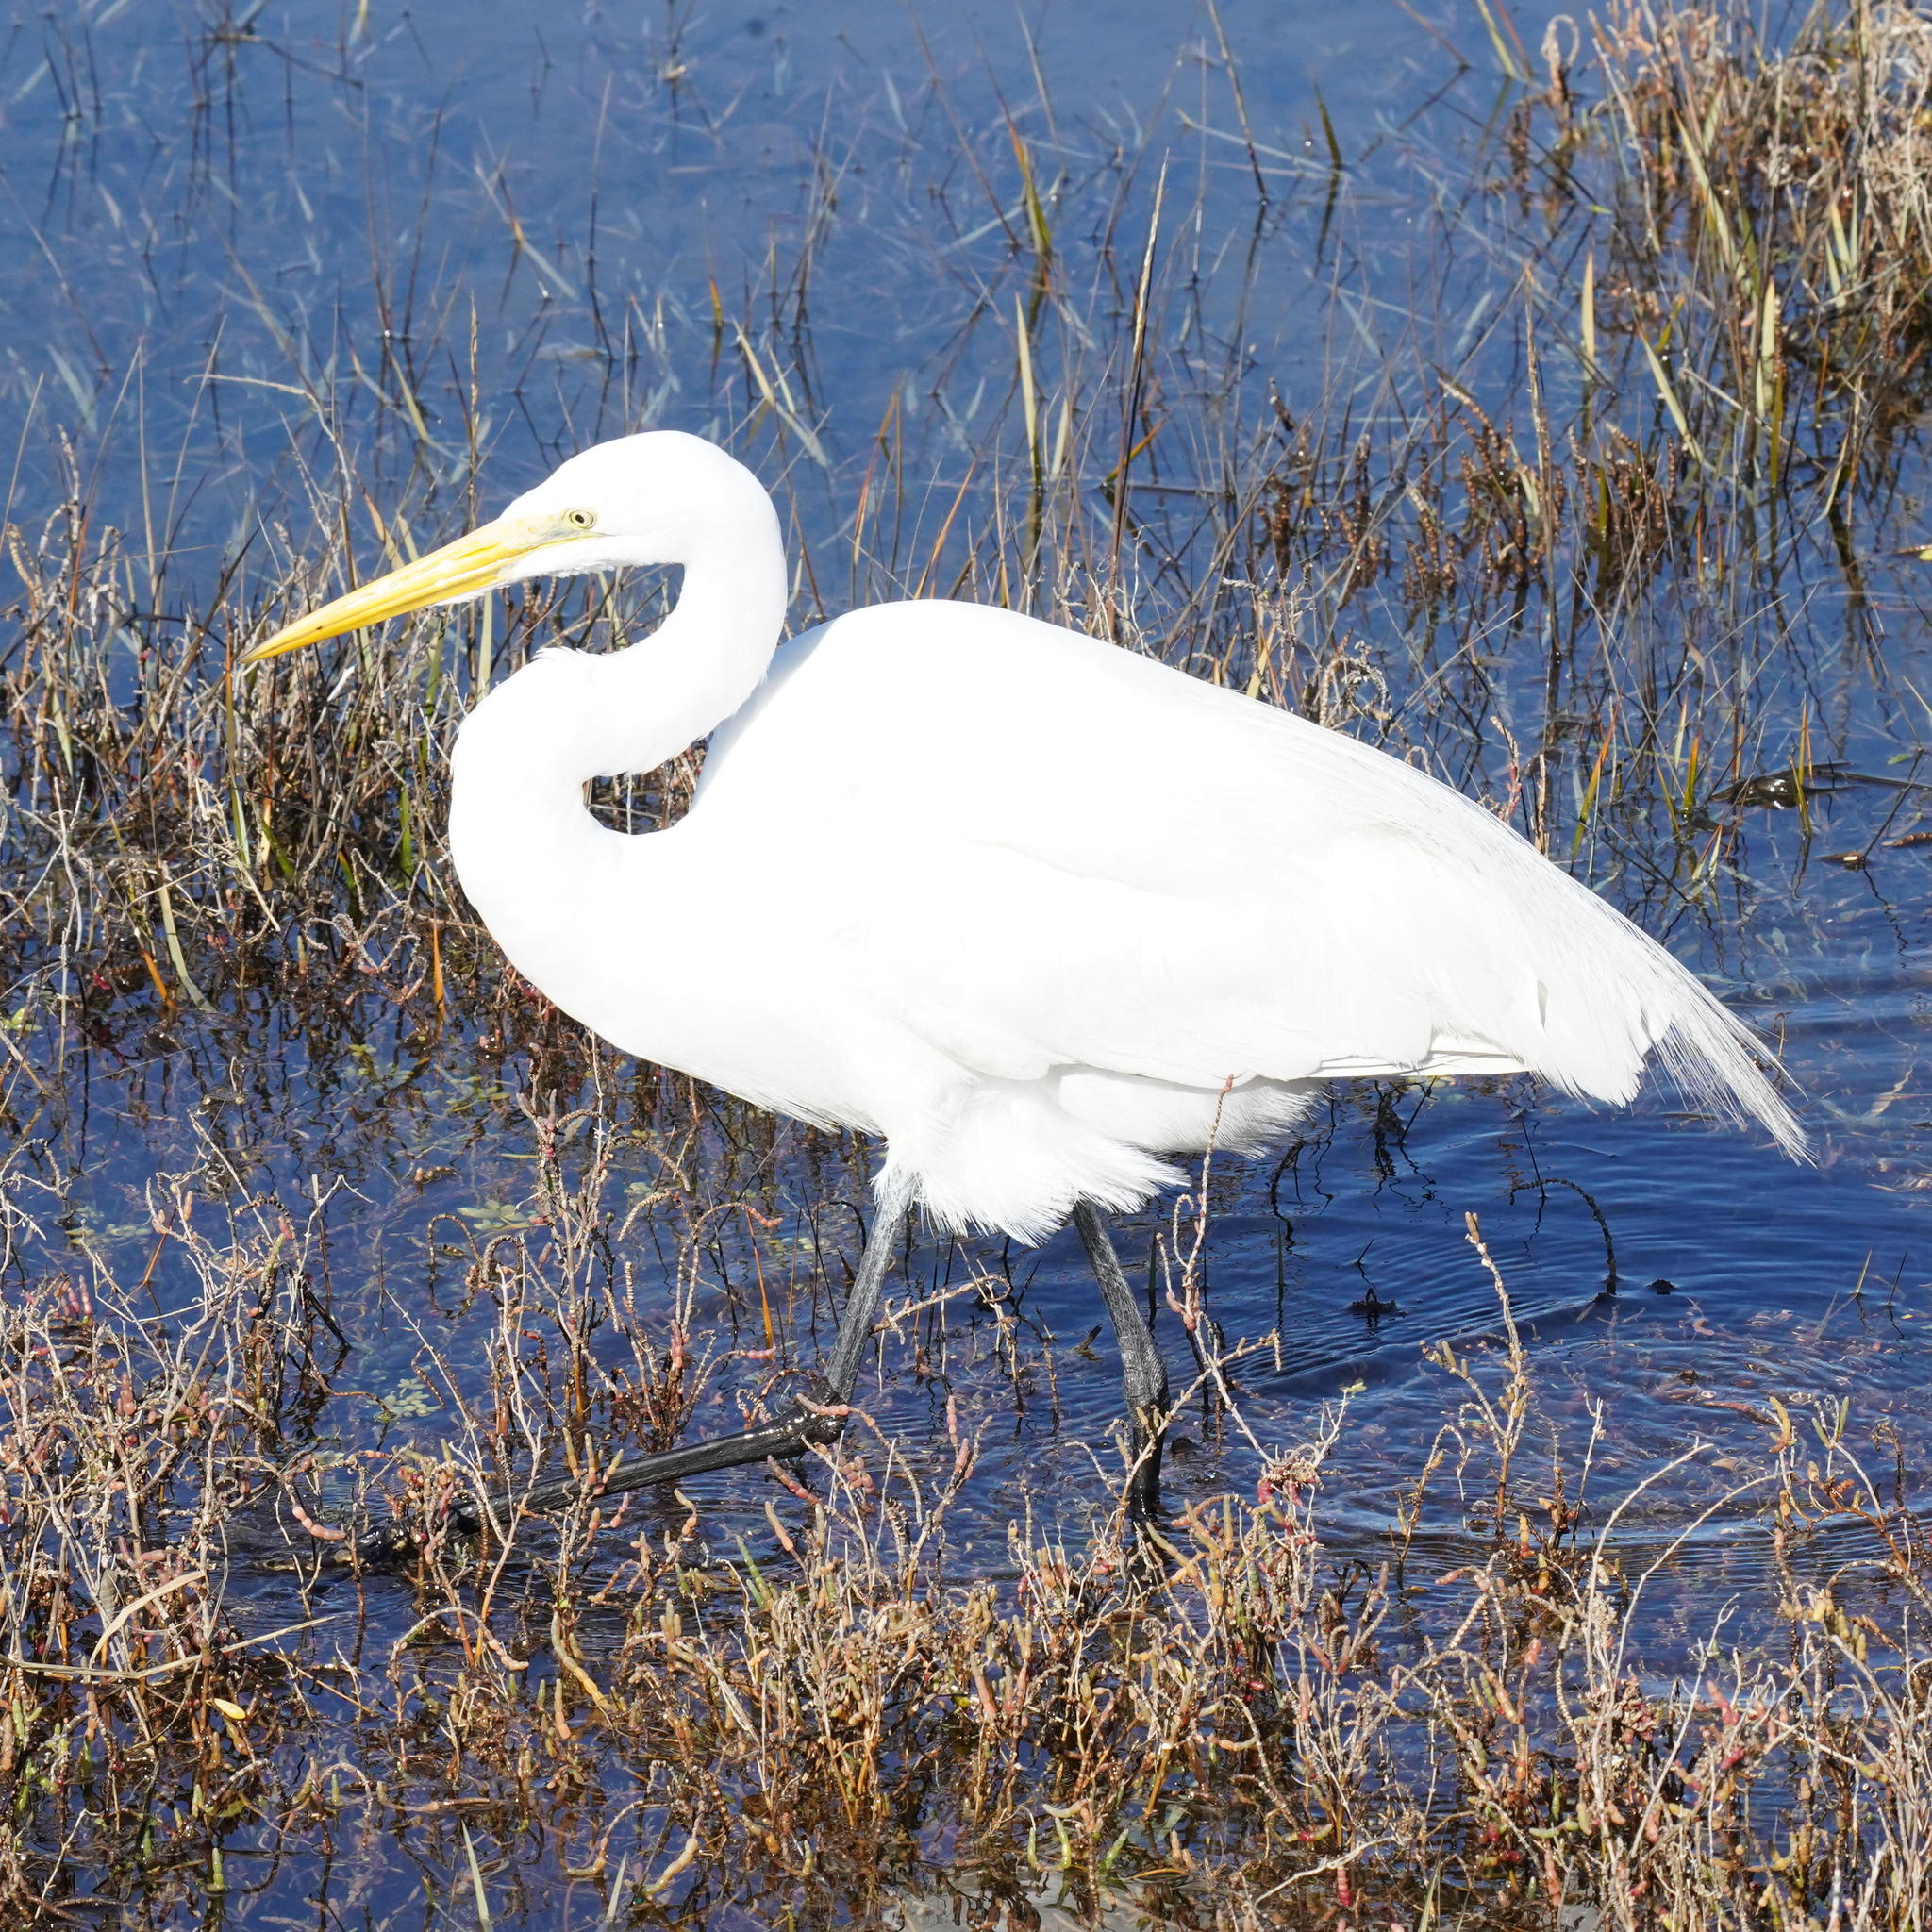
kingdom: Animalia
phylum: Chordata
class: Aves
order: Pelecaniformes
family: Ardeidae
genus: Ardea
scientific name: Ardea alba
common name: Great egret
